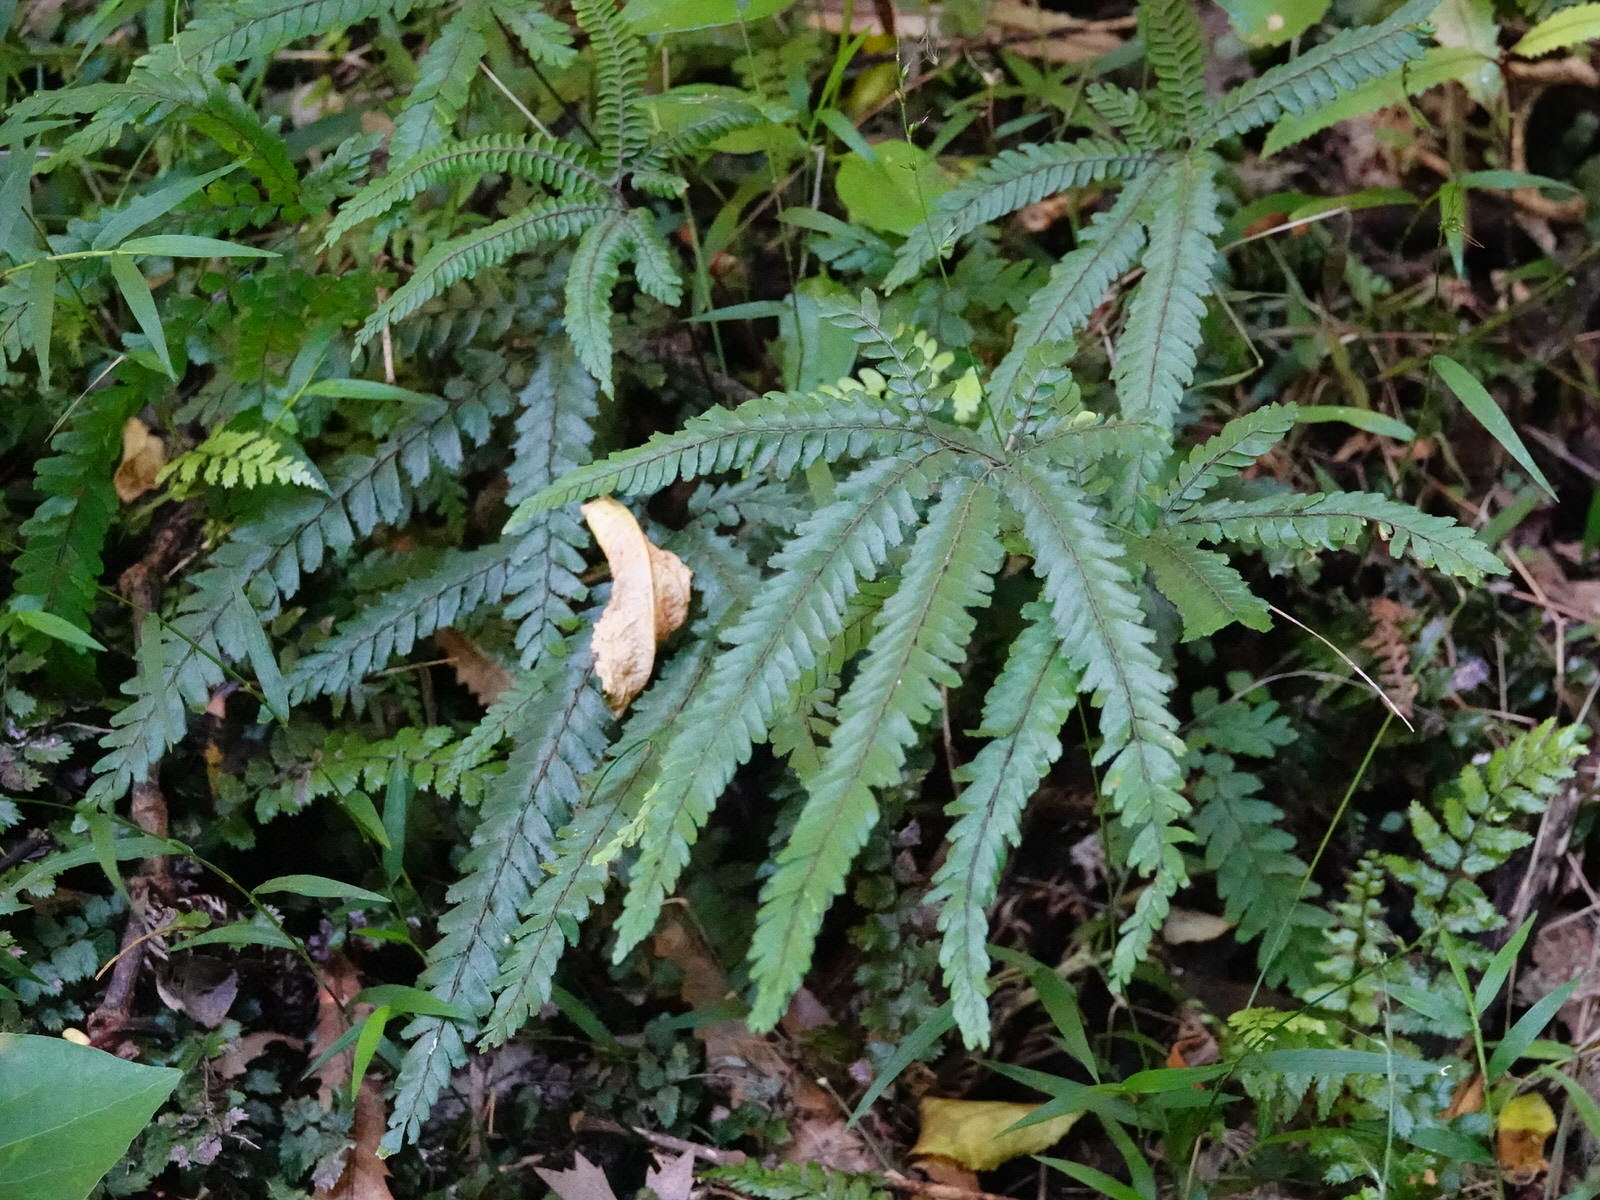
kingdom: Plantae
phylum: Tracheophyta
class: Polypodiopsida
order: Polypodiales
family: Pteridaceae
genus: Adiantum
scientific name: Adiantum hispidulum
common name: Rough maidenhair
